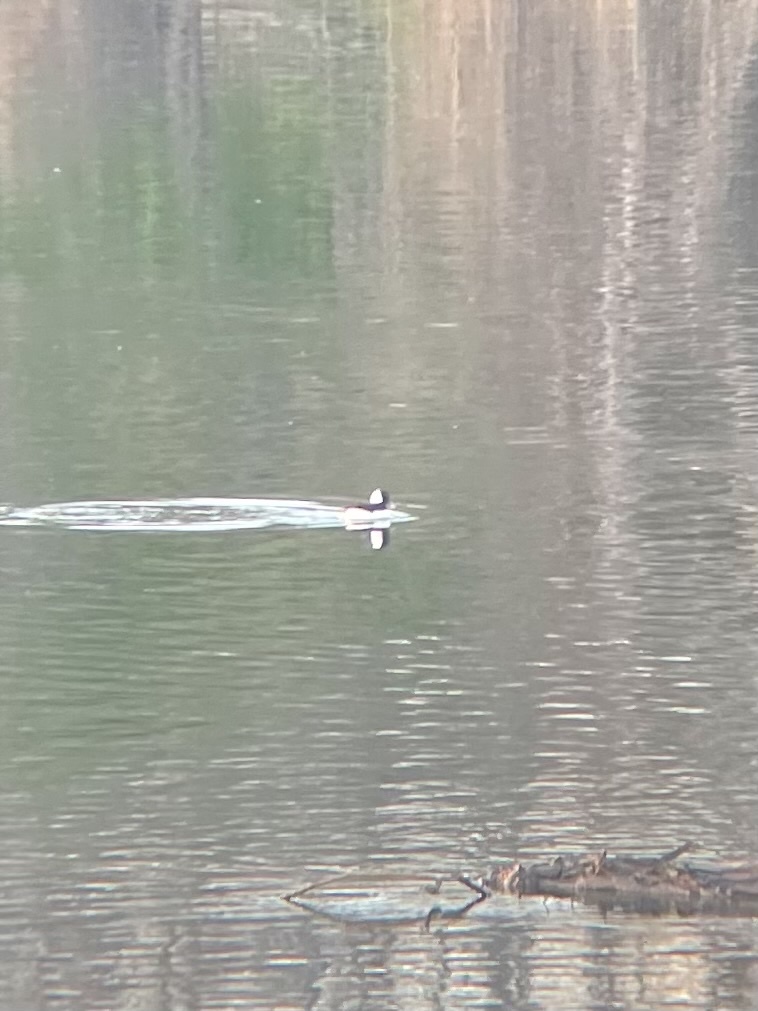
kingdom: Animalia
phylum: Chordata
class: Aves
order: Anseriformes
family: Anatidae
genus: Bucephala
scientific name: Bucephala albeola
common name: Bufflehead
